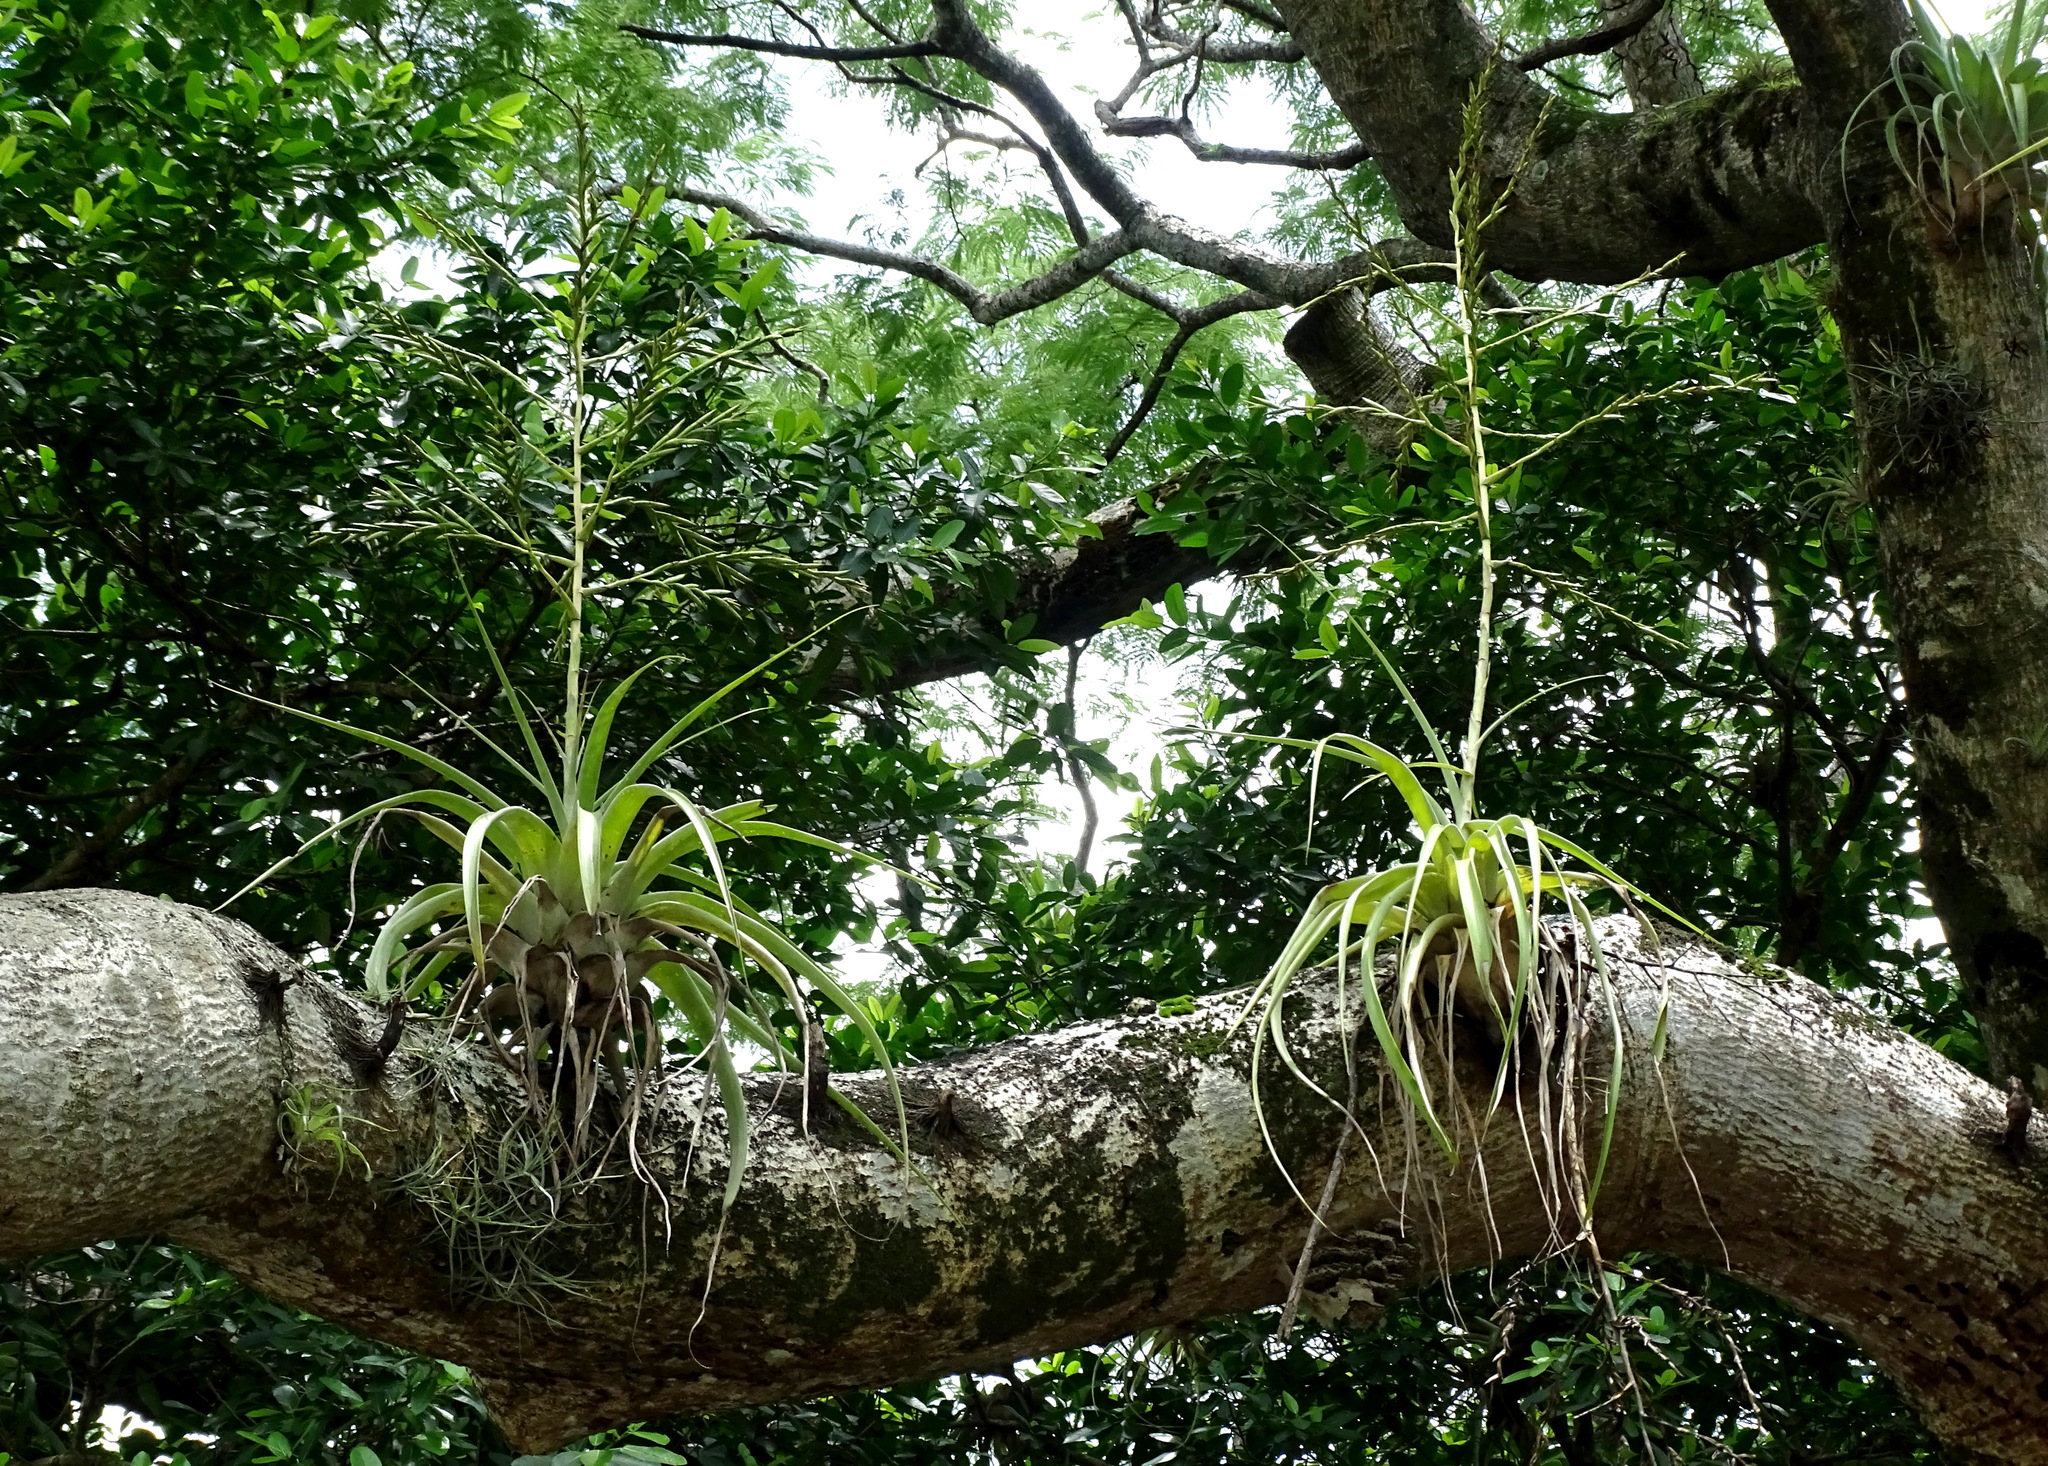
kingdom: Plantae
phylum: Tracheophyta
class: Liliopsida
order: Poales
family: Bromeliaceae
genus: Tillandsia
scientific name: Tillandsia utriculata
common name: Wild pine
